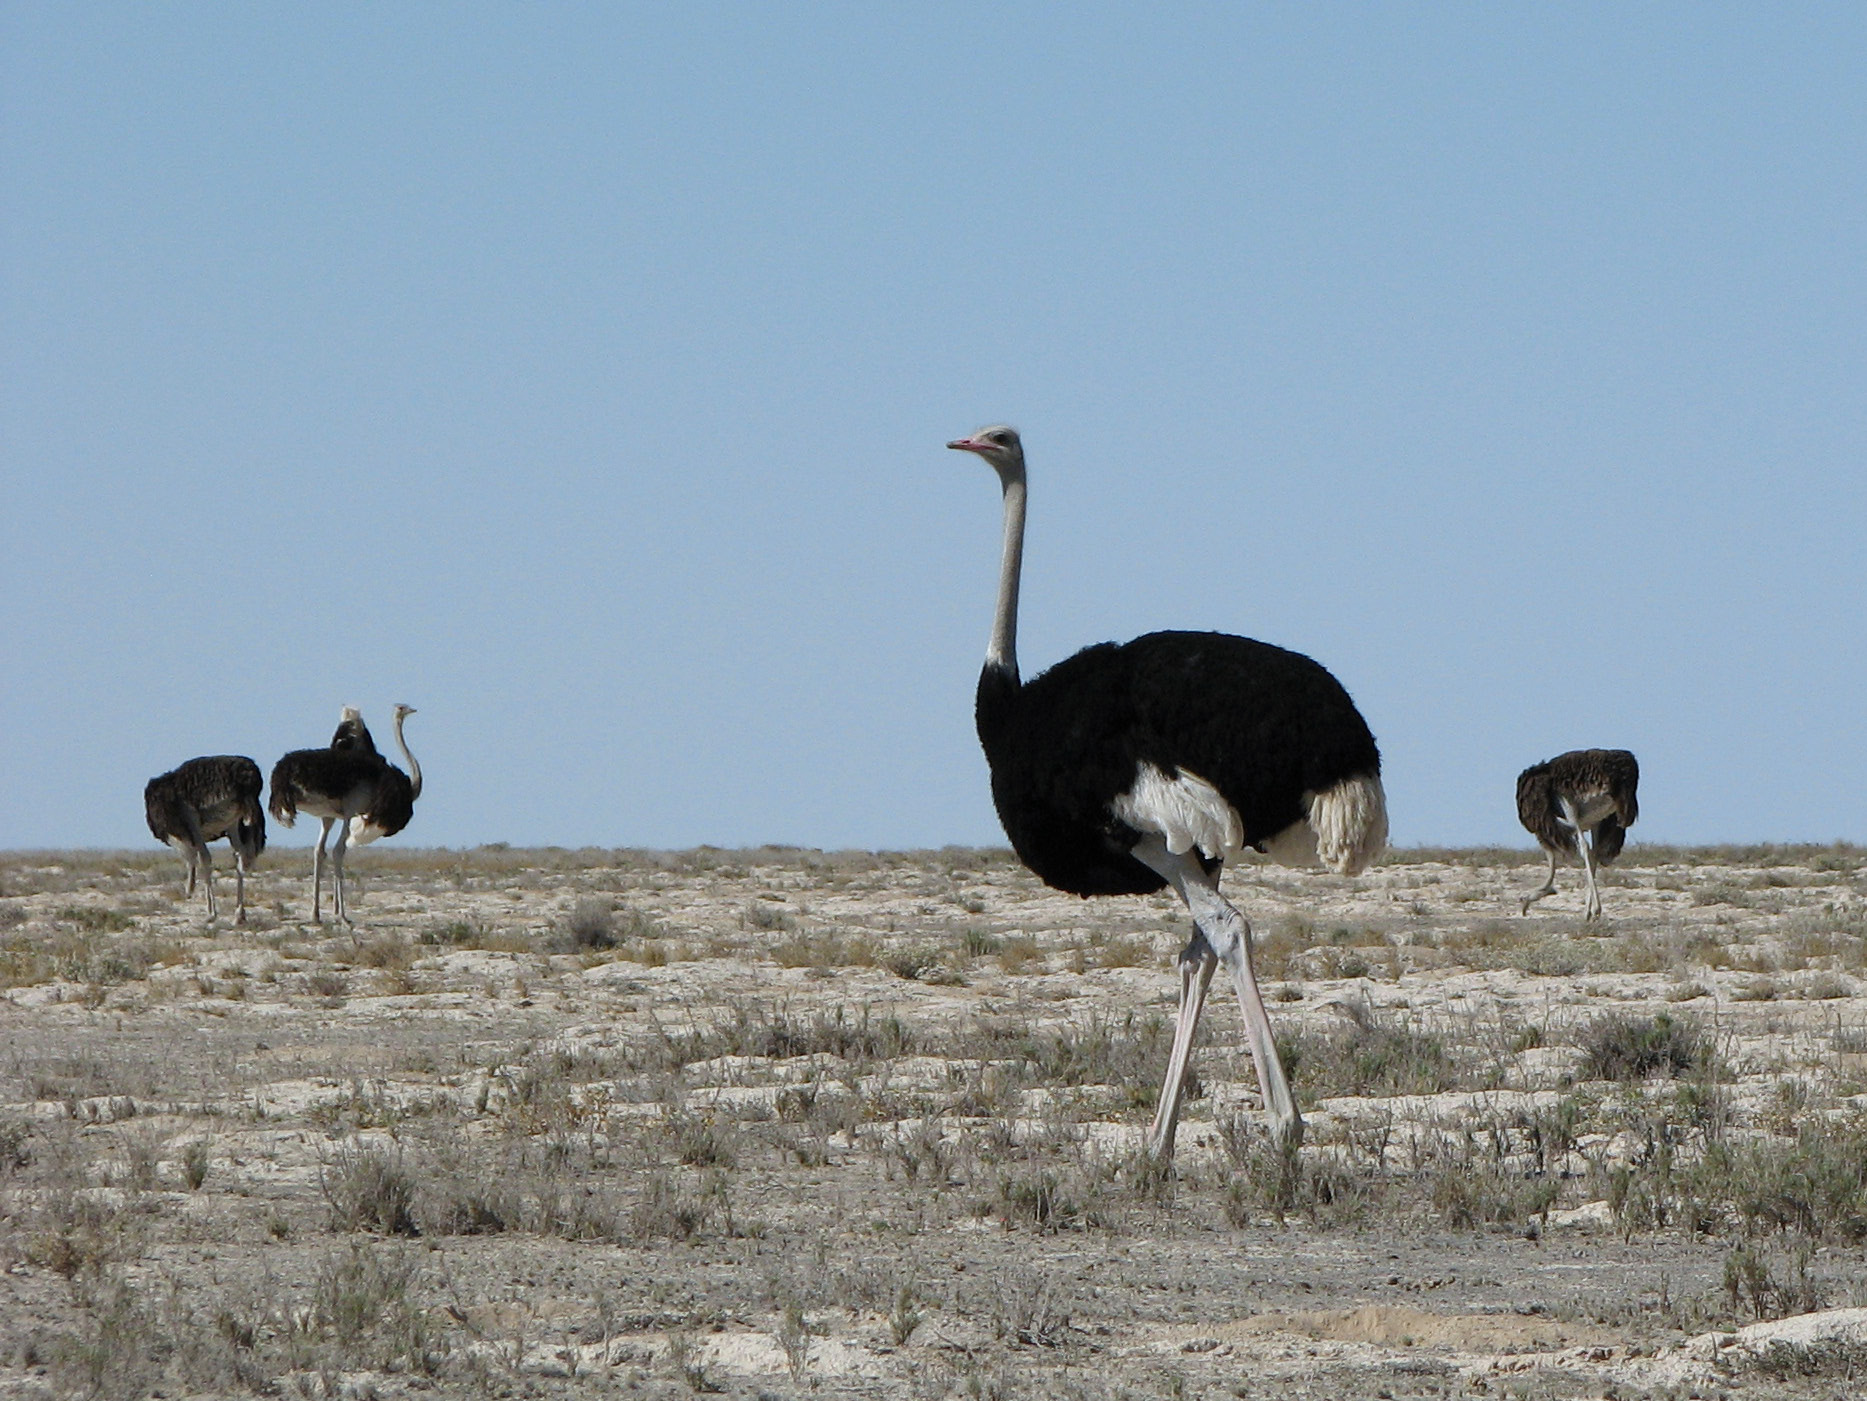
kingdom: Animalia
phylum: Chordata
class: Aves
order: Struthioniformes
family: Struthionidae
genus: Struthio
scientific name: Struthio camelus
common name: Common ostrich
